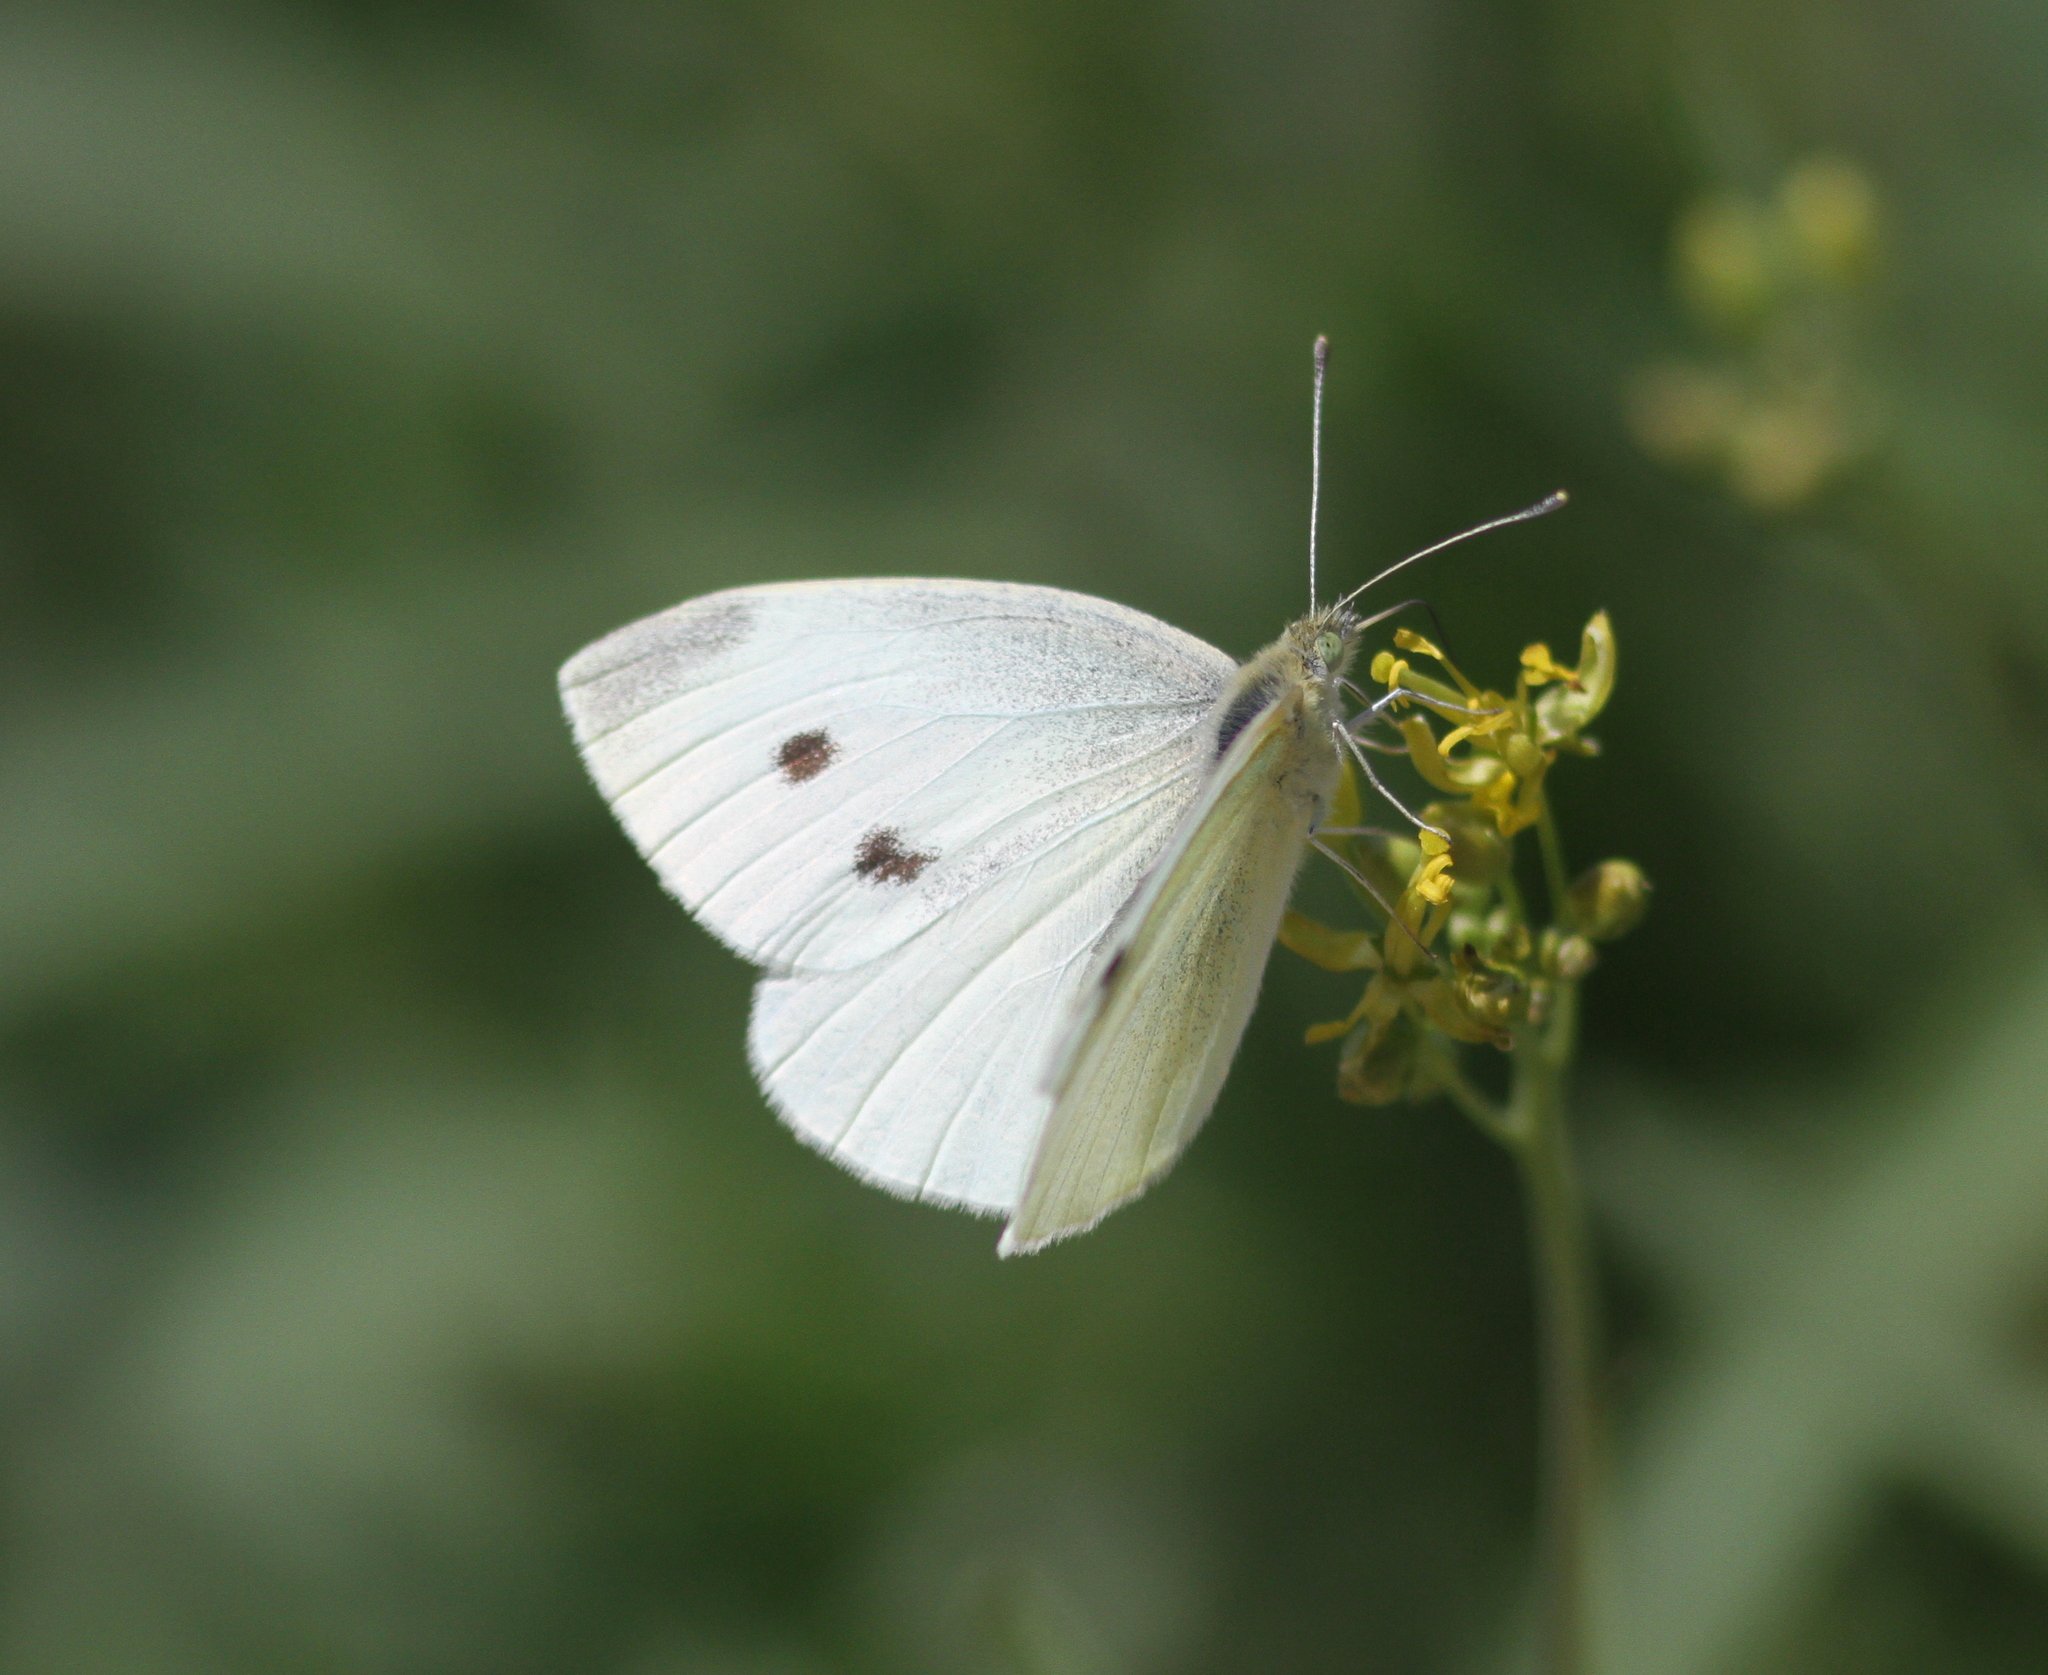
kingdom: Animalia
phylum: Arthropoda
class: Insecta
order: Lepidoptera
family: Pieridae
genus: Pieris
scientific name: Pieris rapae
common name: Small white
